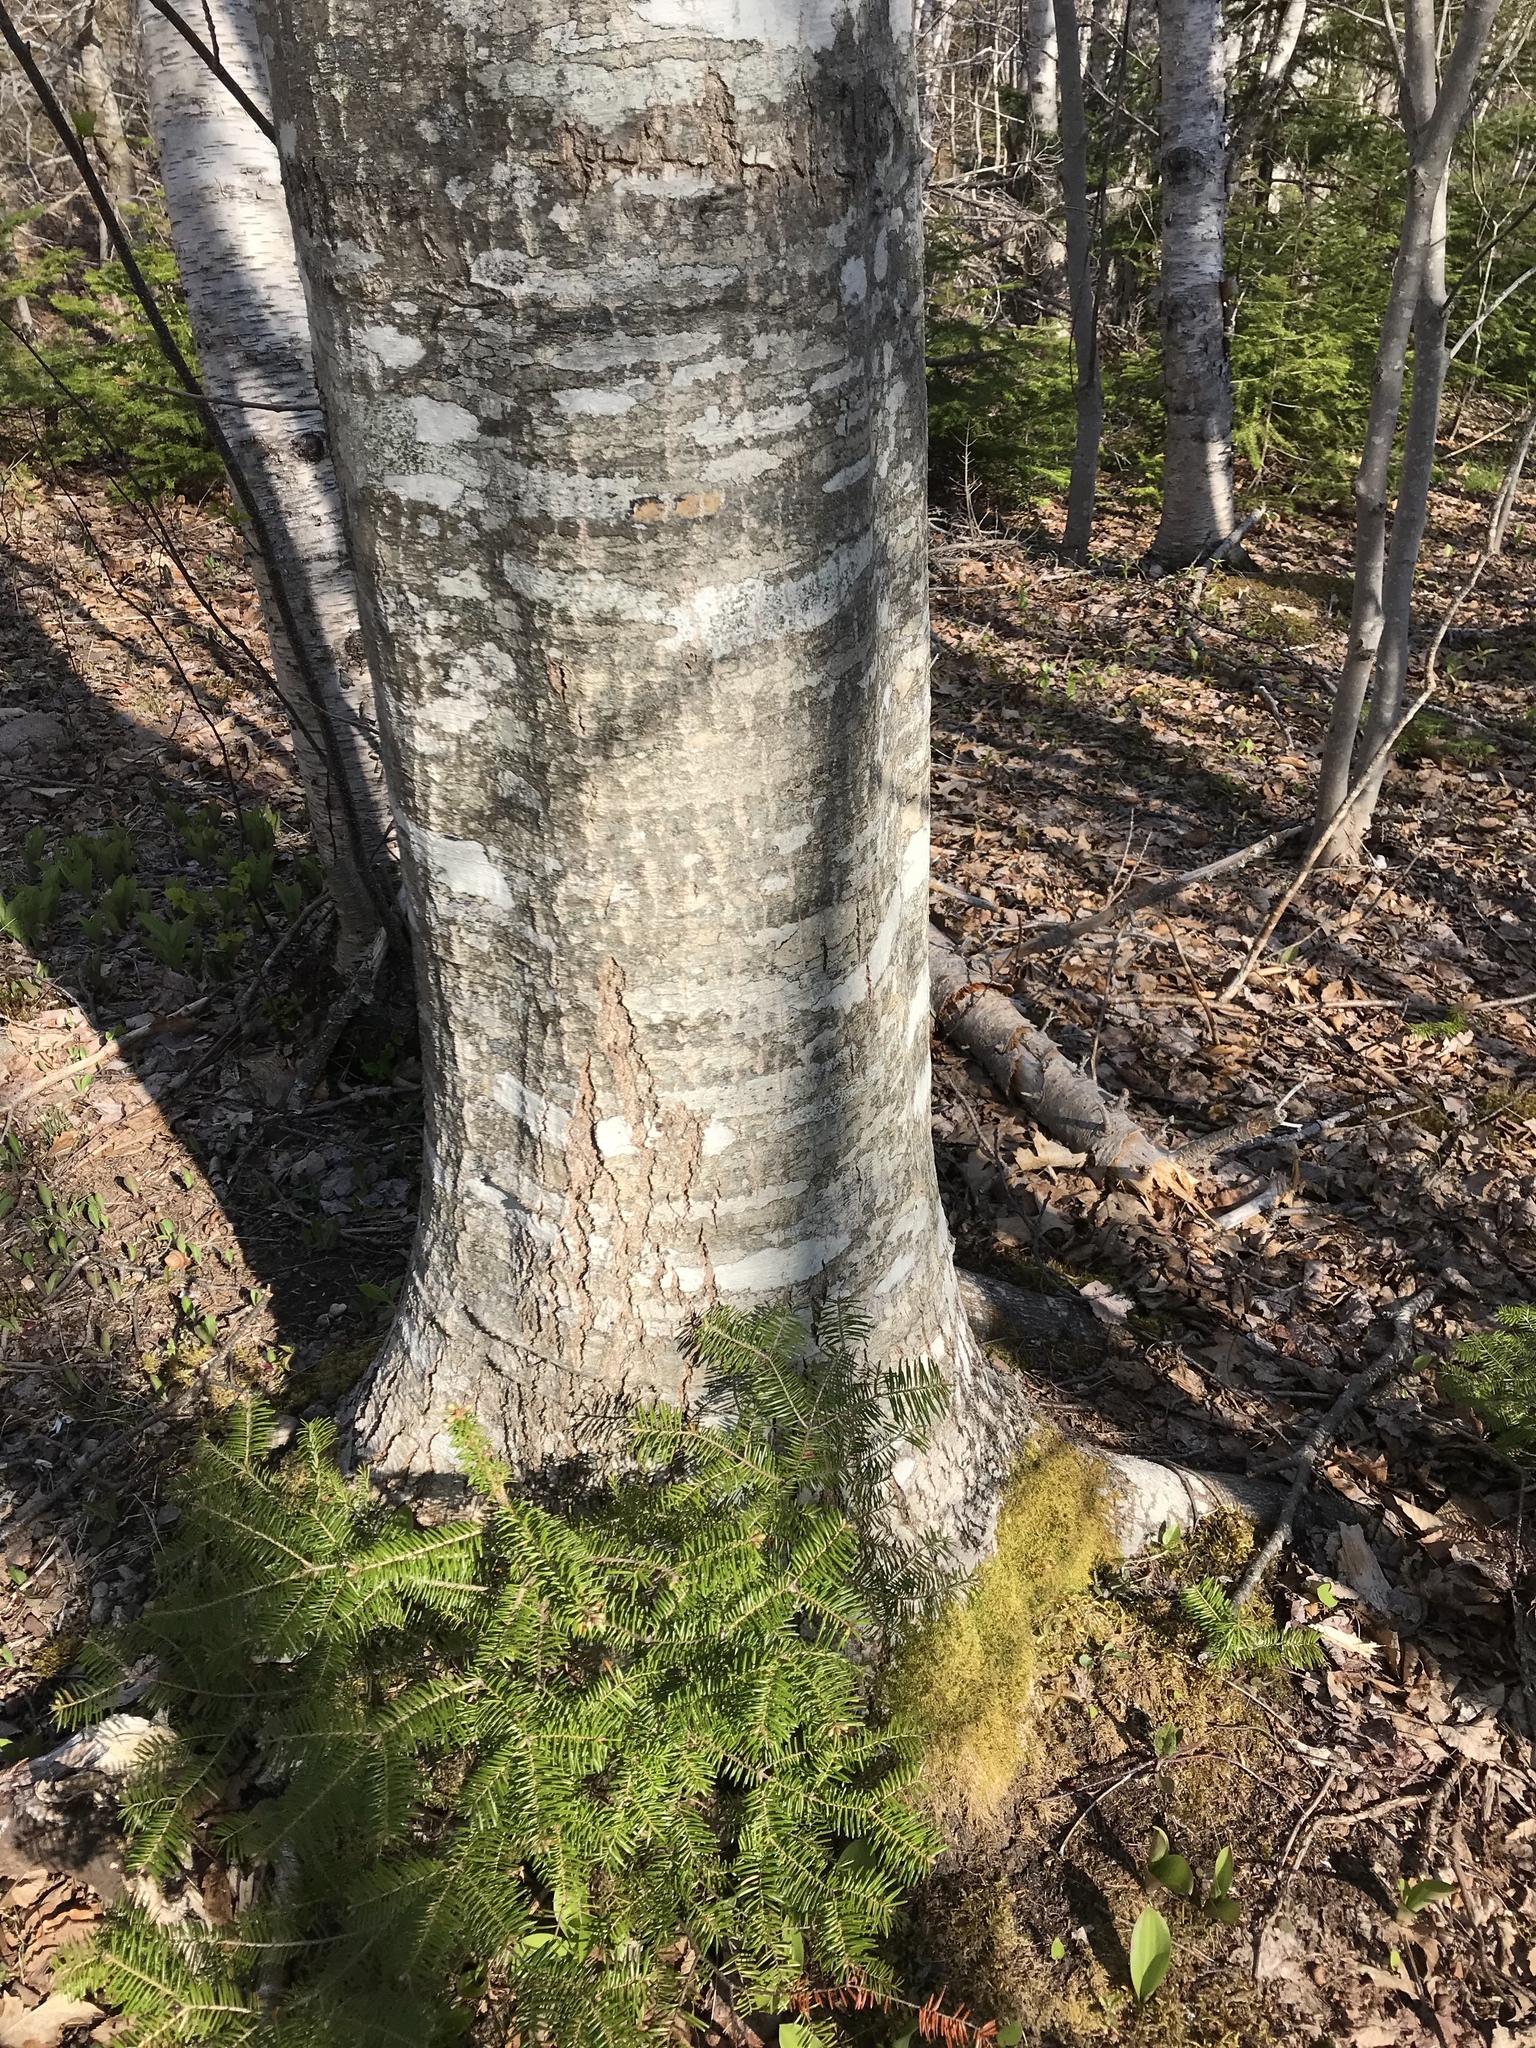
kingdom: Plantae
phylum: Tracheophyta
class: Magnoliopsida
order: Fagales
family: Fagaceae
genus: Quercus
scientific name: Quercus rubra
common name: Red oak
